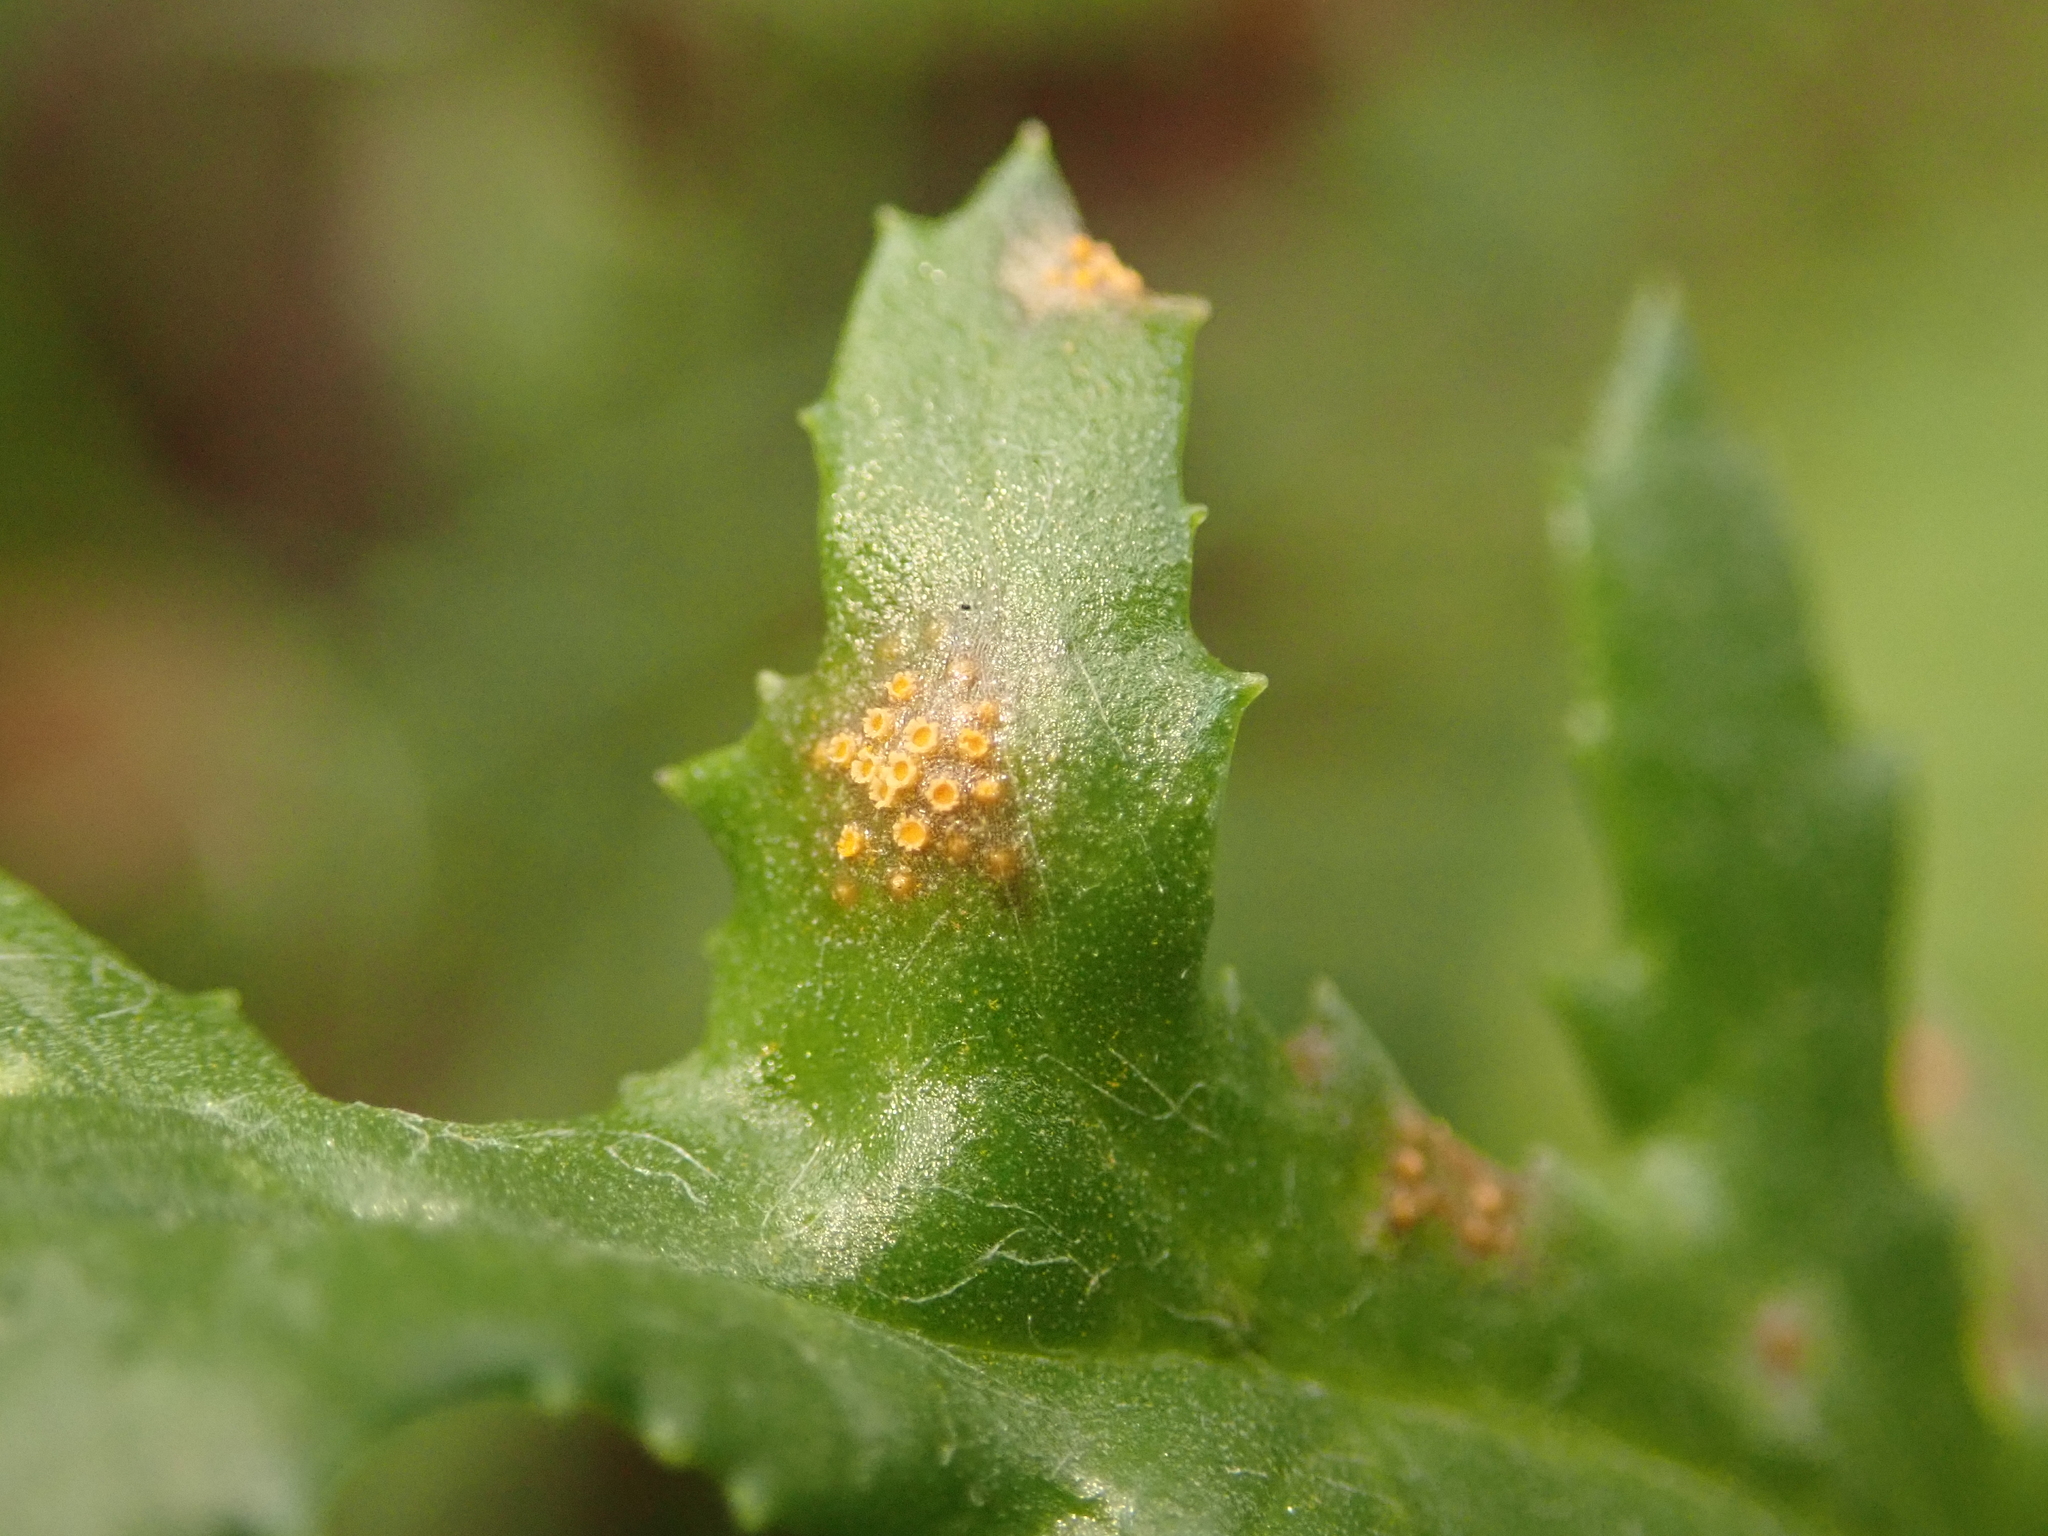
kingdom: Fungi
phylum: Basidiomycota
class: Pucciniomycetes
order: Pucciniales
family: Pucciniaceae
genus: Puccinia
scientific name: Puccinia lagenophorae
